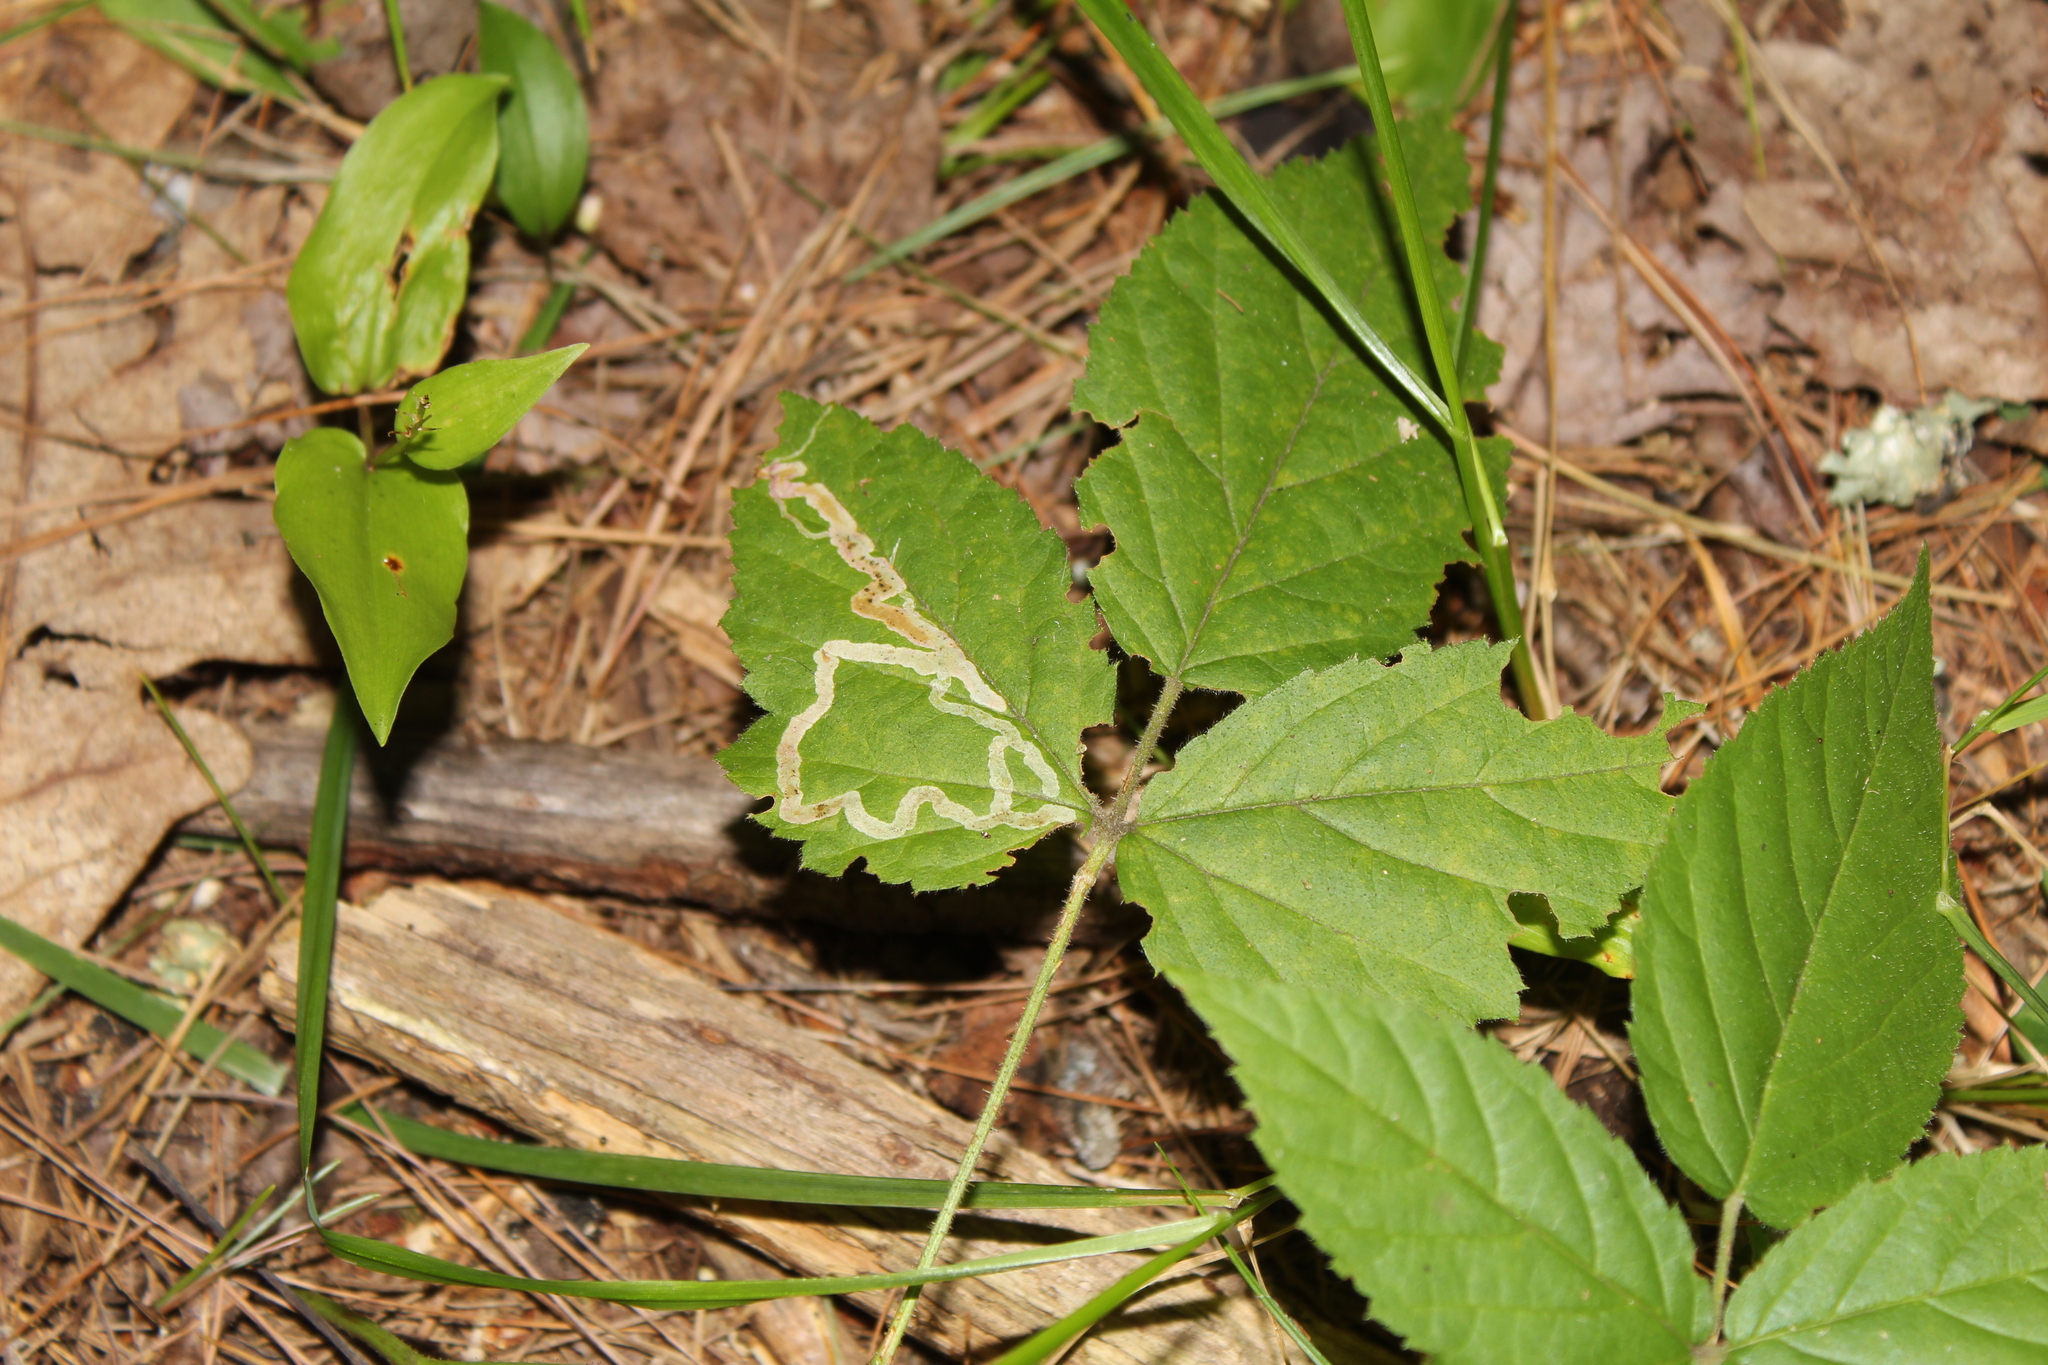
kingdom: Animalia
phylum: Arthropoda
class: Insecta
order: Diptera
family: Agromyzidae
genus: Agromyza
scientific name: Agromyza vockerothi
